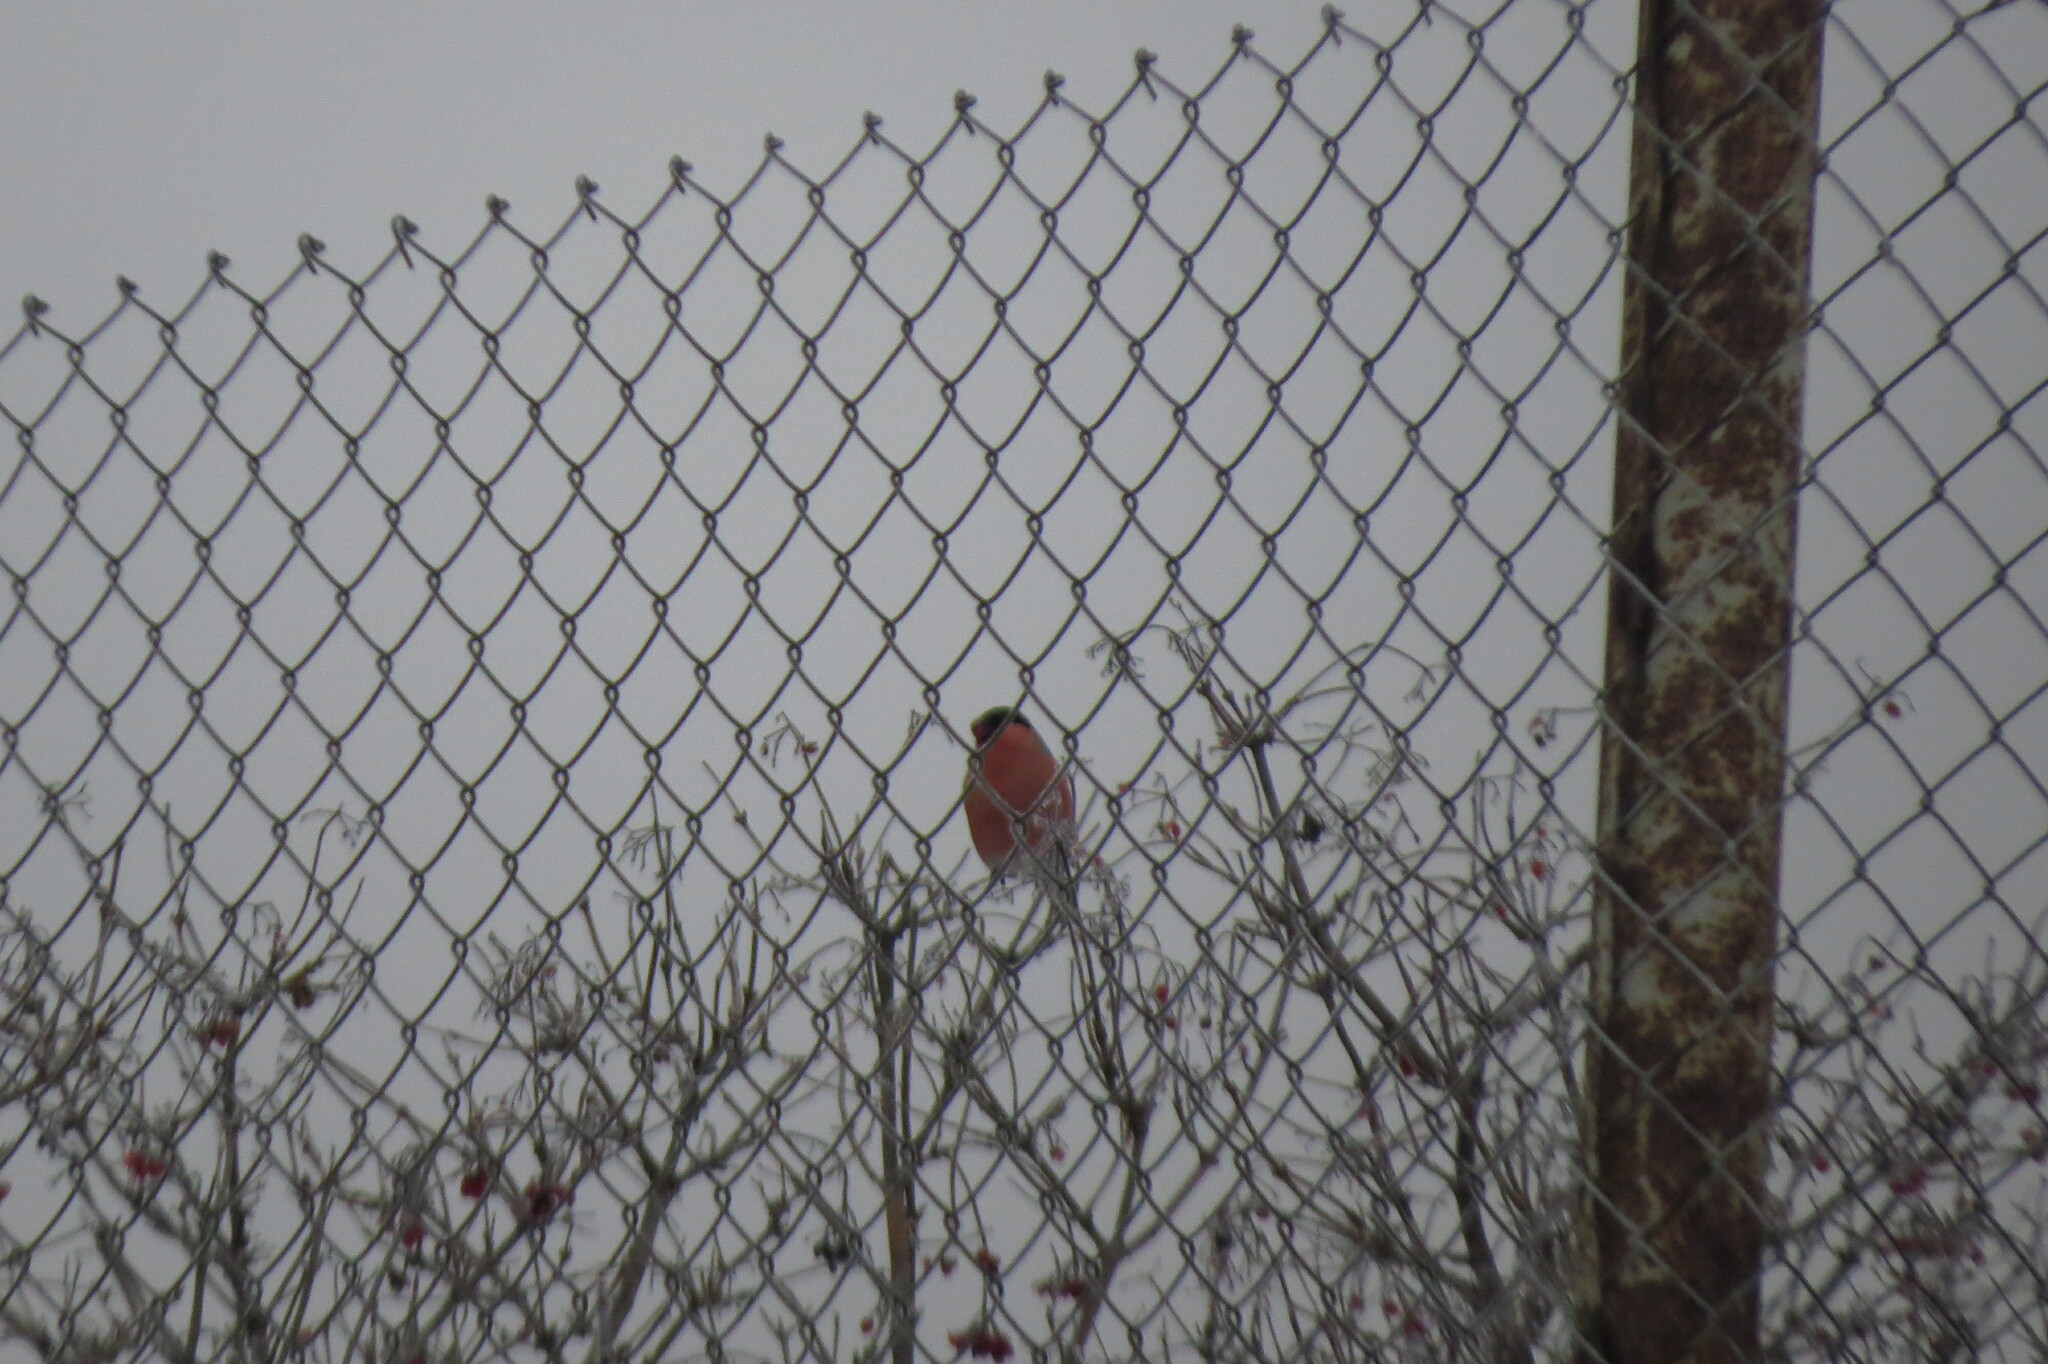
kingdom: Animalia
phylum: Chordata
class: Aves
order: Passeriformes
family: Fringillidae
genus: Pyrrhula
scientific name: Pyrrhula pyrrhula
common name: Eurasian bullfinch
